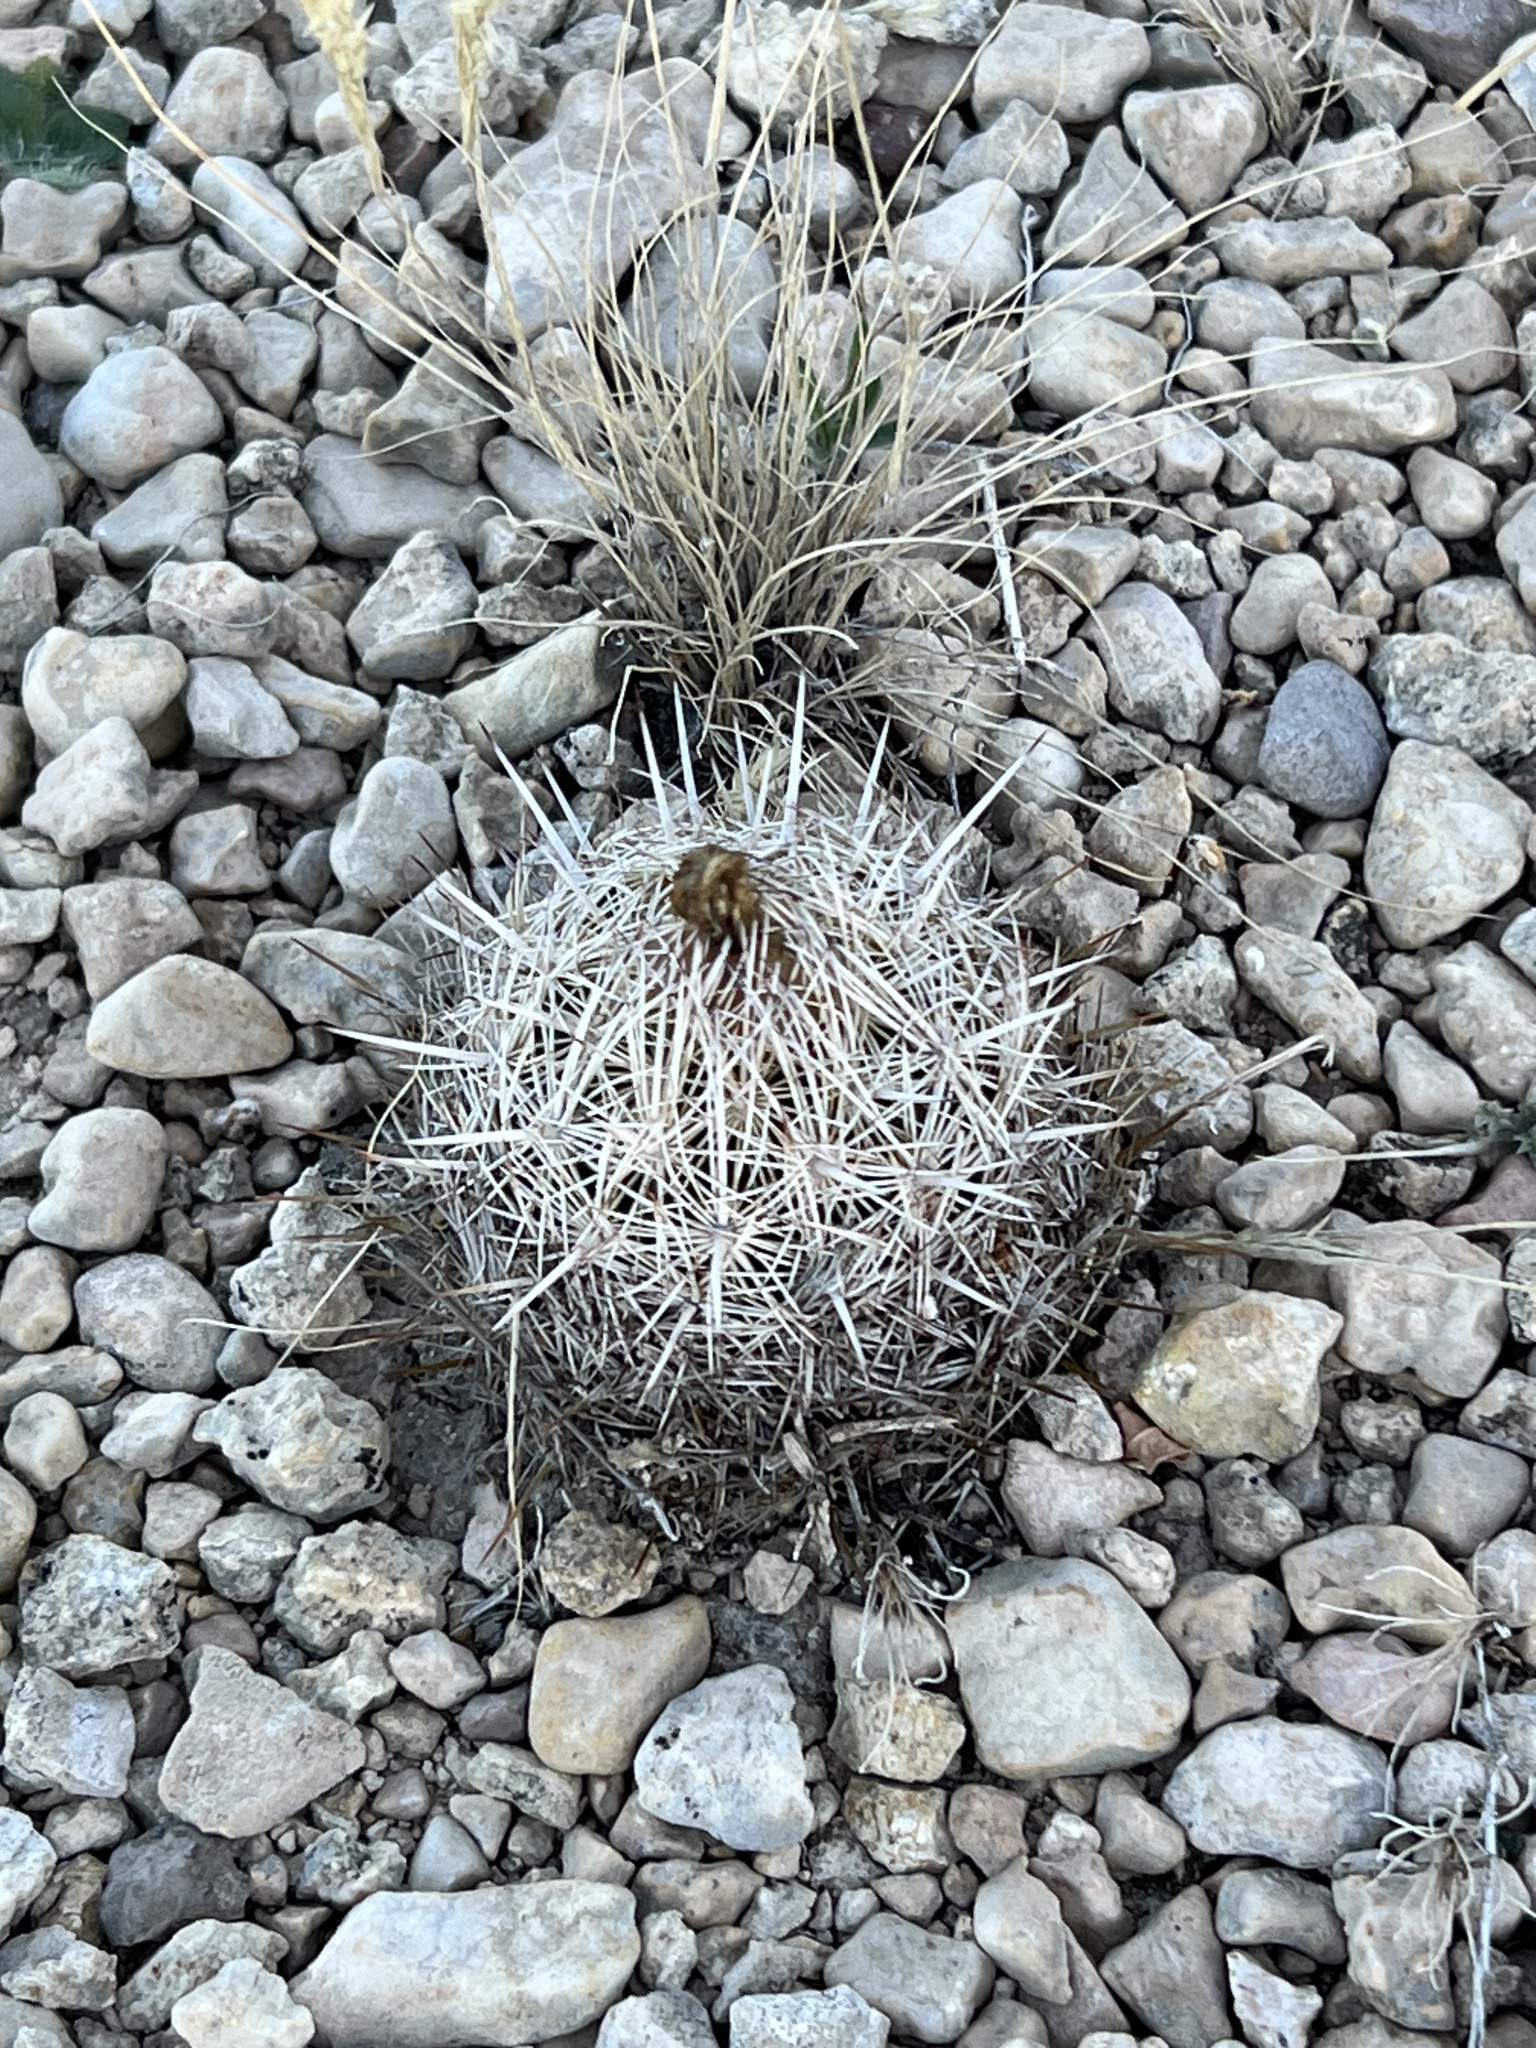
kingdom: Plantae
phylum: Tracheophyta
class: Magnoliopsida
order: Caryophyllales
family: Cactaceae
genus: Coryphantha
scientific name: Coryphantha echinus
